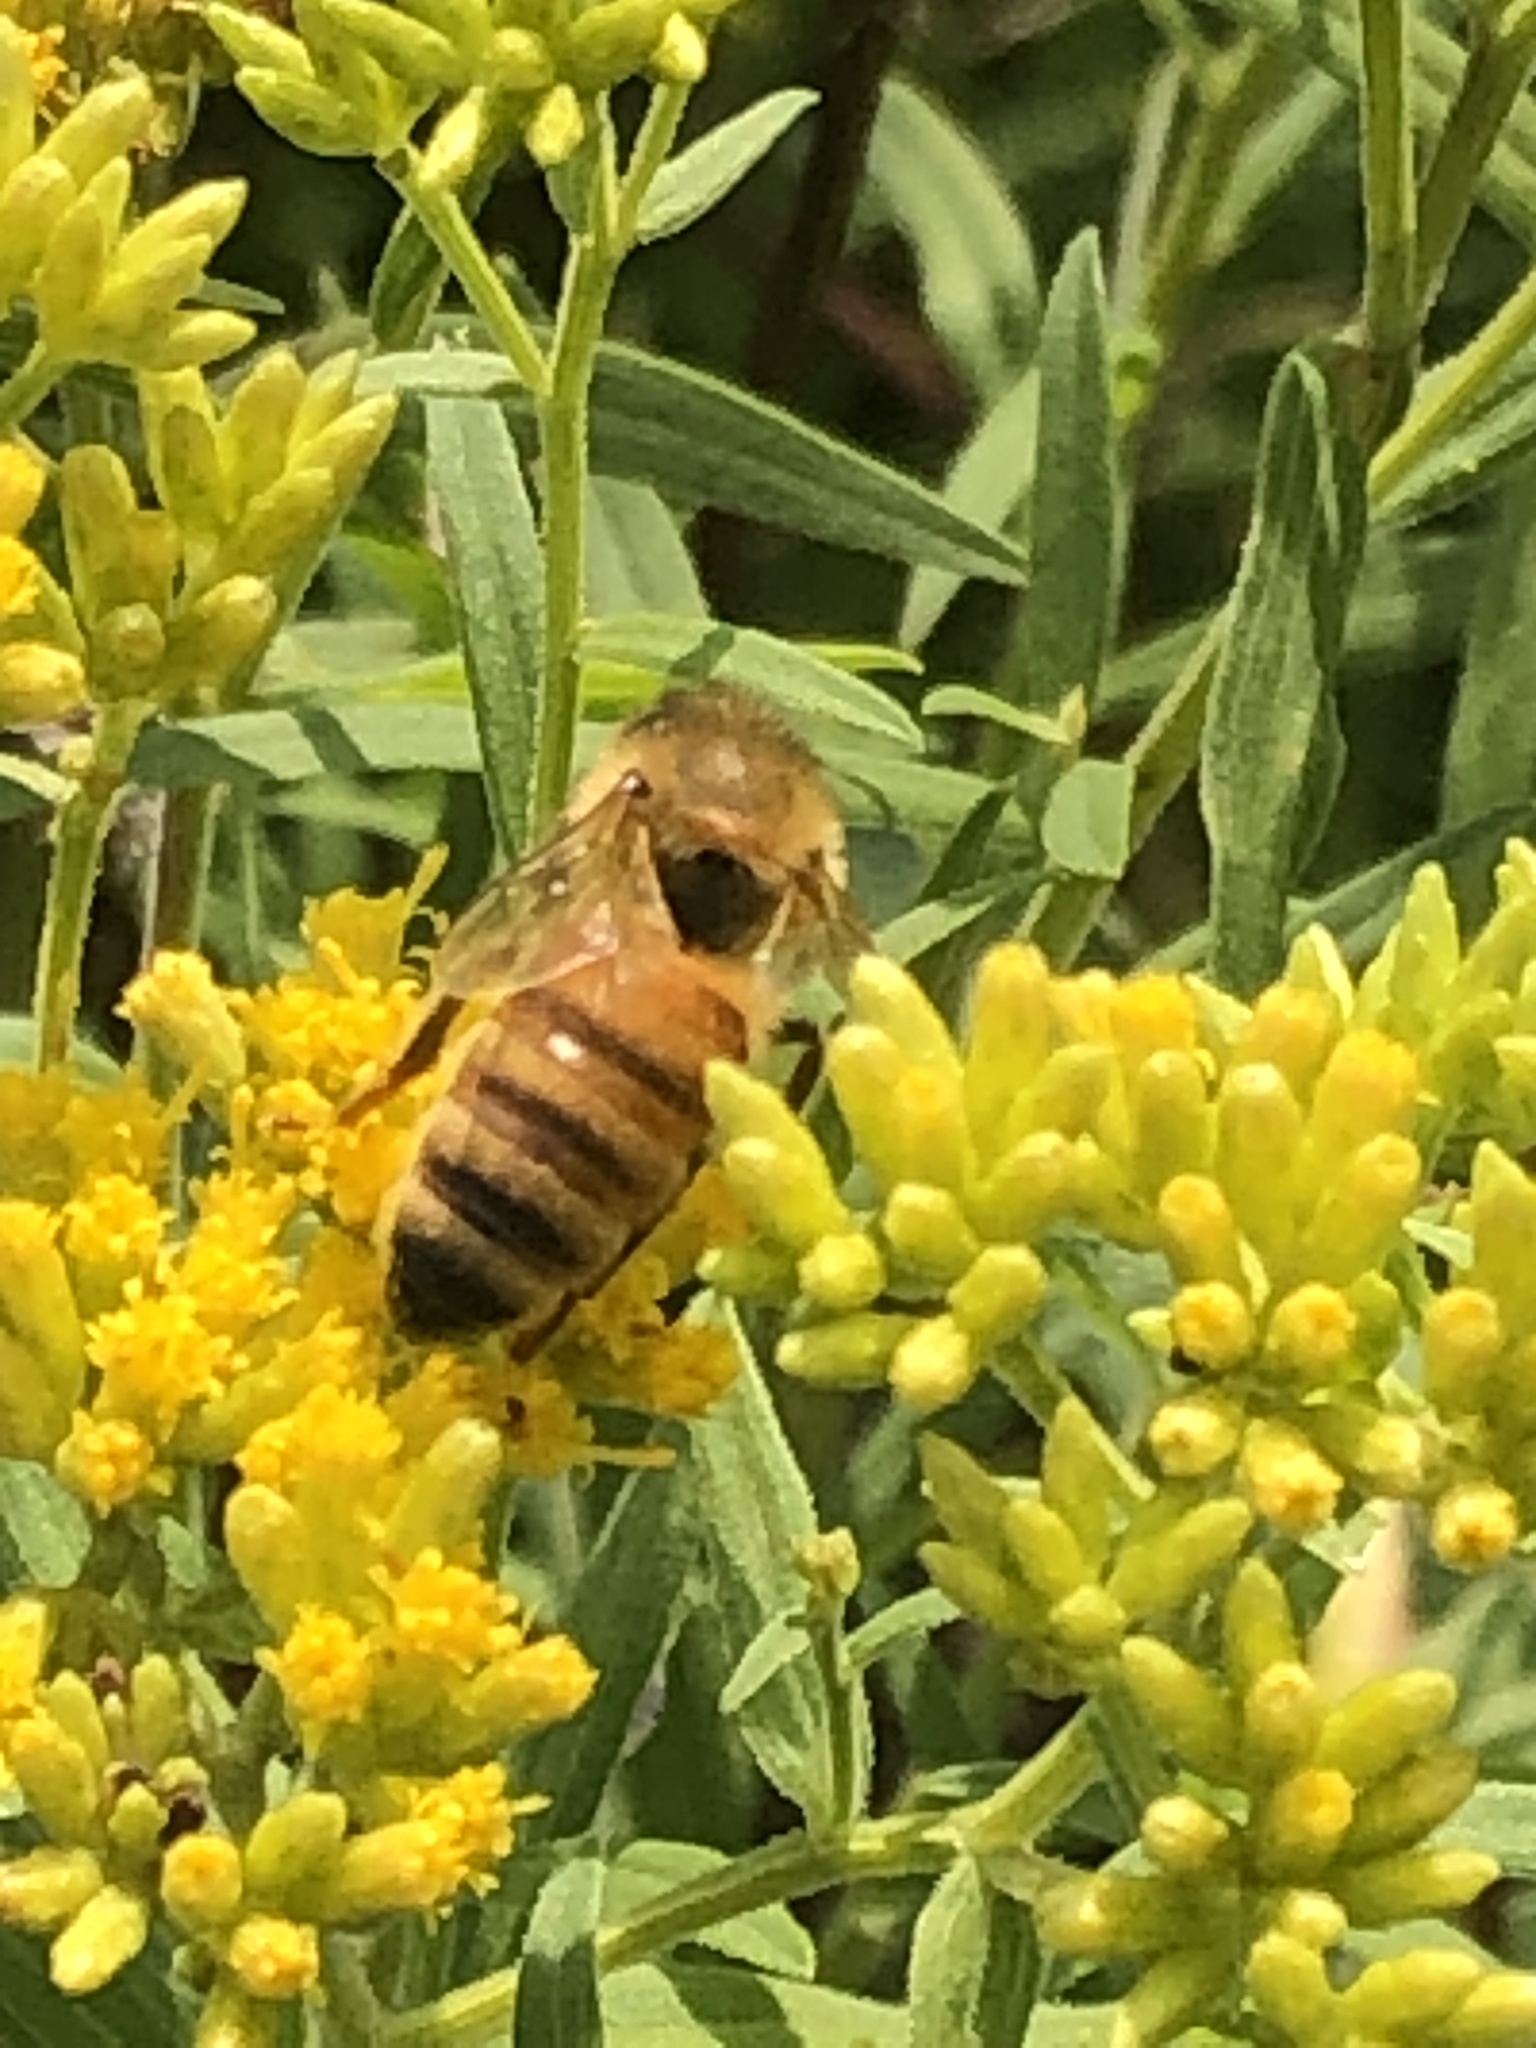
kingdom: Animalia
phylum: Arthropoda
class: Insecta
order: Hymenoptera
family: Apidae
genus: Apis
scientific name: Apis mellifera
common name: Honey bee
